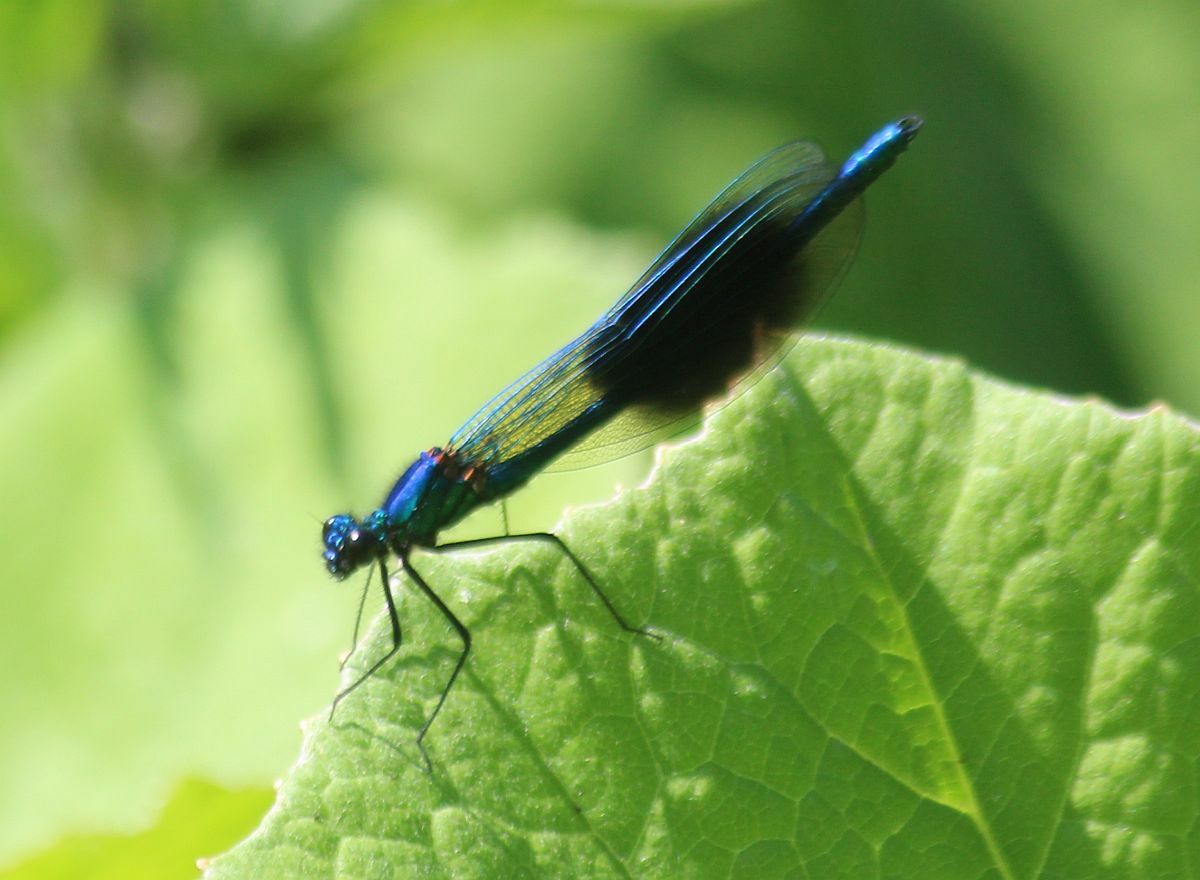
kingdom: Animalia
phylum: Arthropoda
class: Insecta
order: Odonata
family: Calopterygidae
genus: Calopteryx
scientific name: Calopteryx splendens
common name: Banded demoiselle
